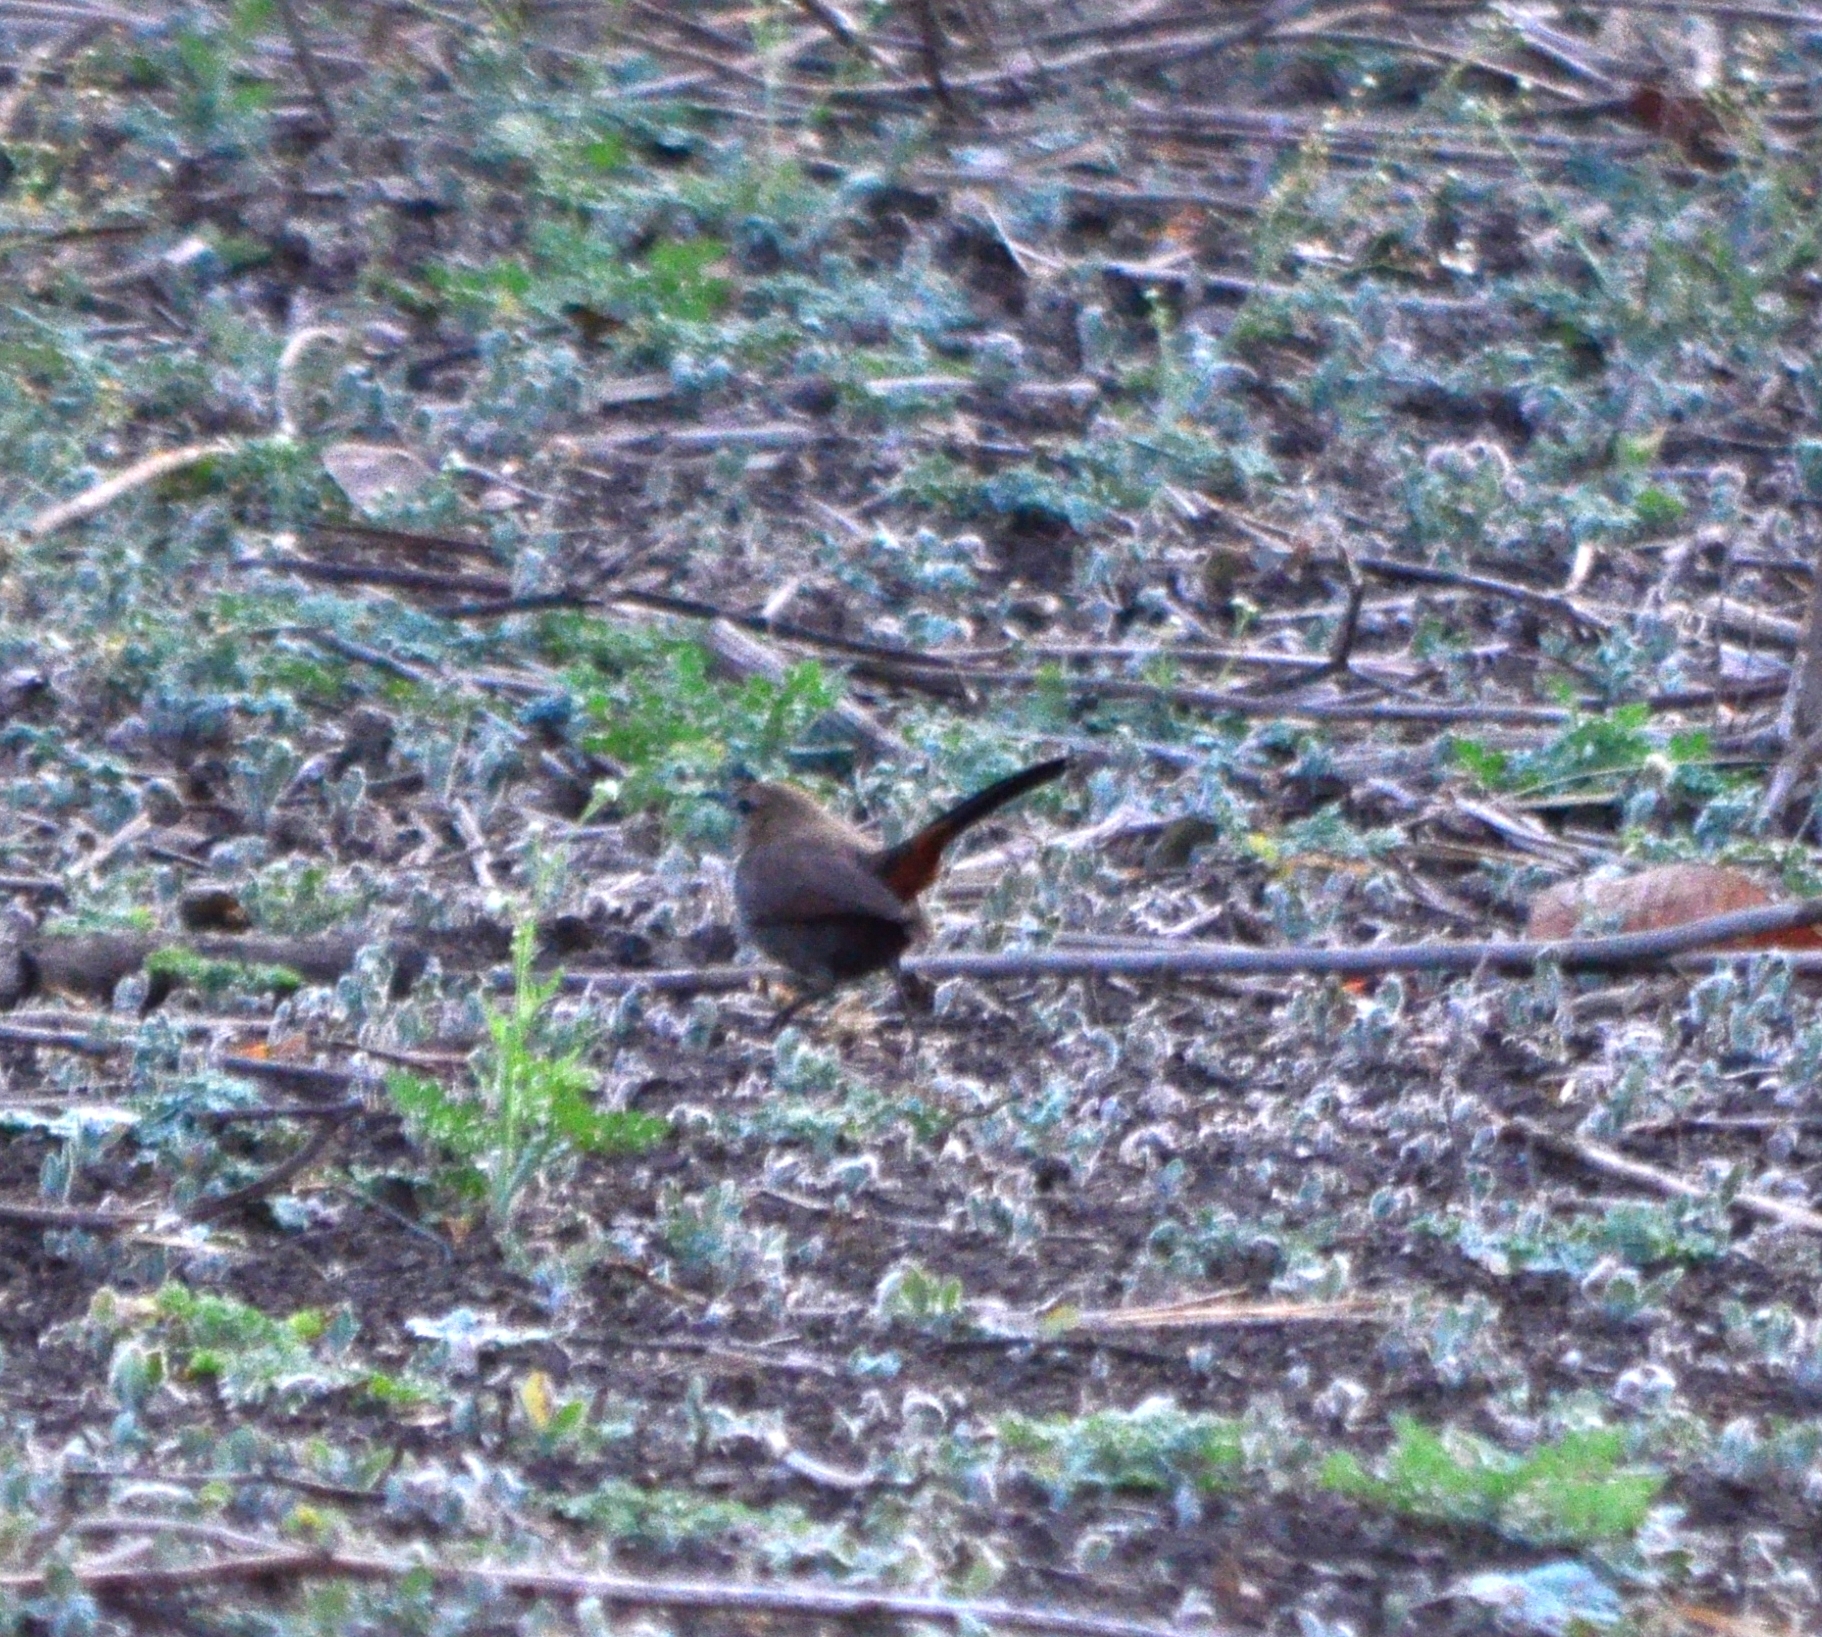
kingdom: Animalia
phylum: Chordata
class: Aves
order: Passeriformes
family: Muscicapidae
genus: Saxicoloides
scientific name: Saxicoloides fulicatus
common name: Indian robin
